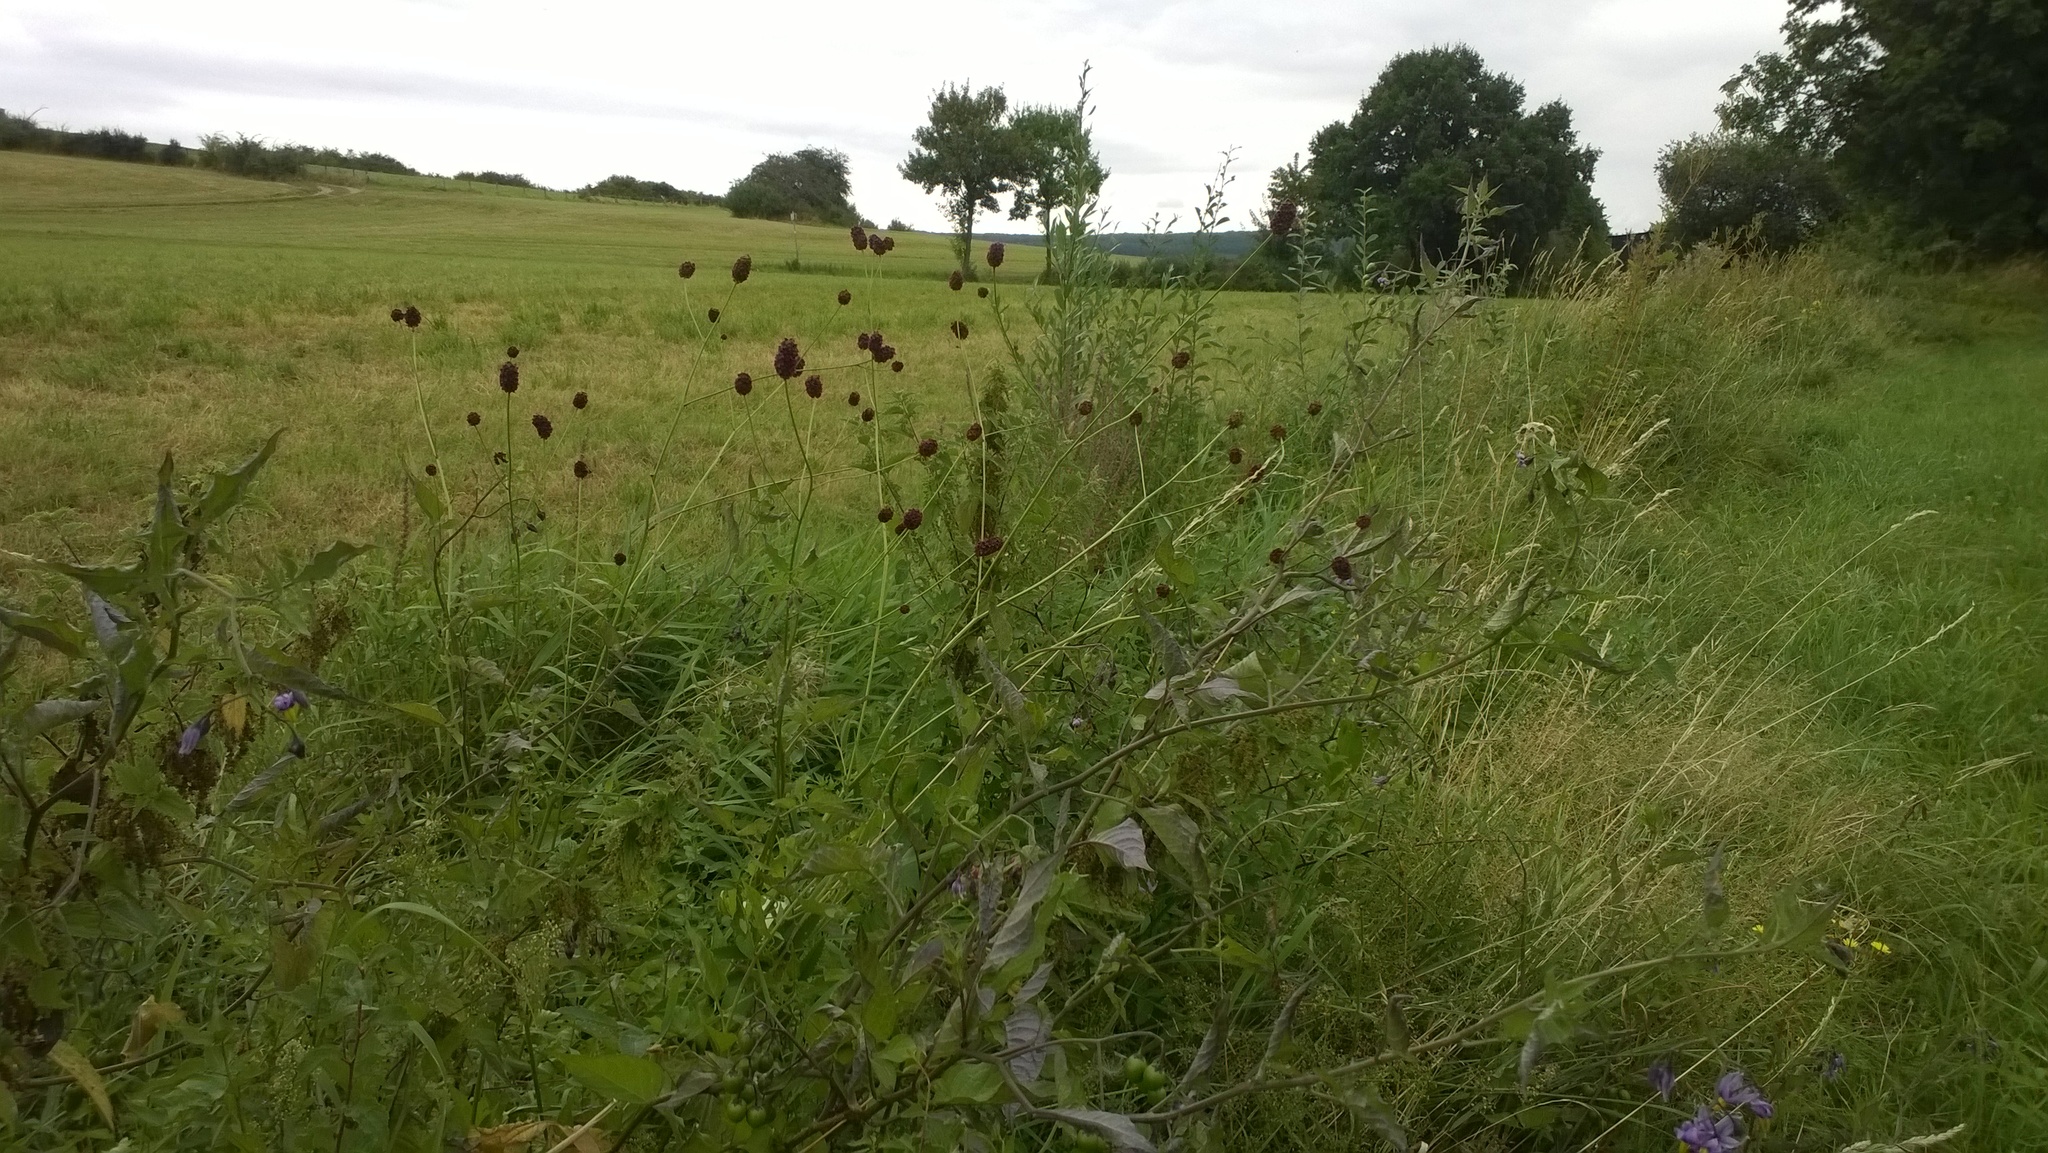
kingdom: Plantae
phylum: Tracheophyta
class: Magnoliopsida
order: Rosales
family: Rosaceae
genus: Sanguisorba
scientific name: Sanguisorba officinalis
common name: Great burnet
